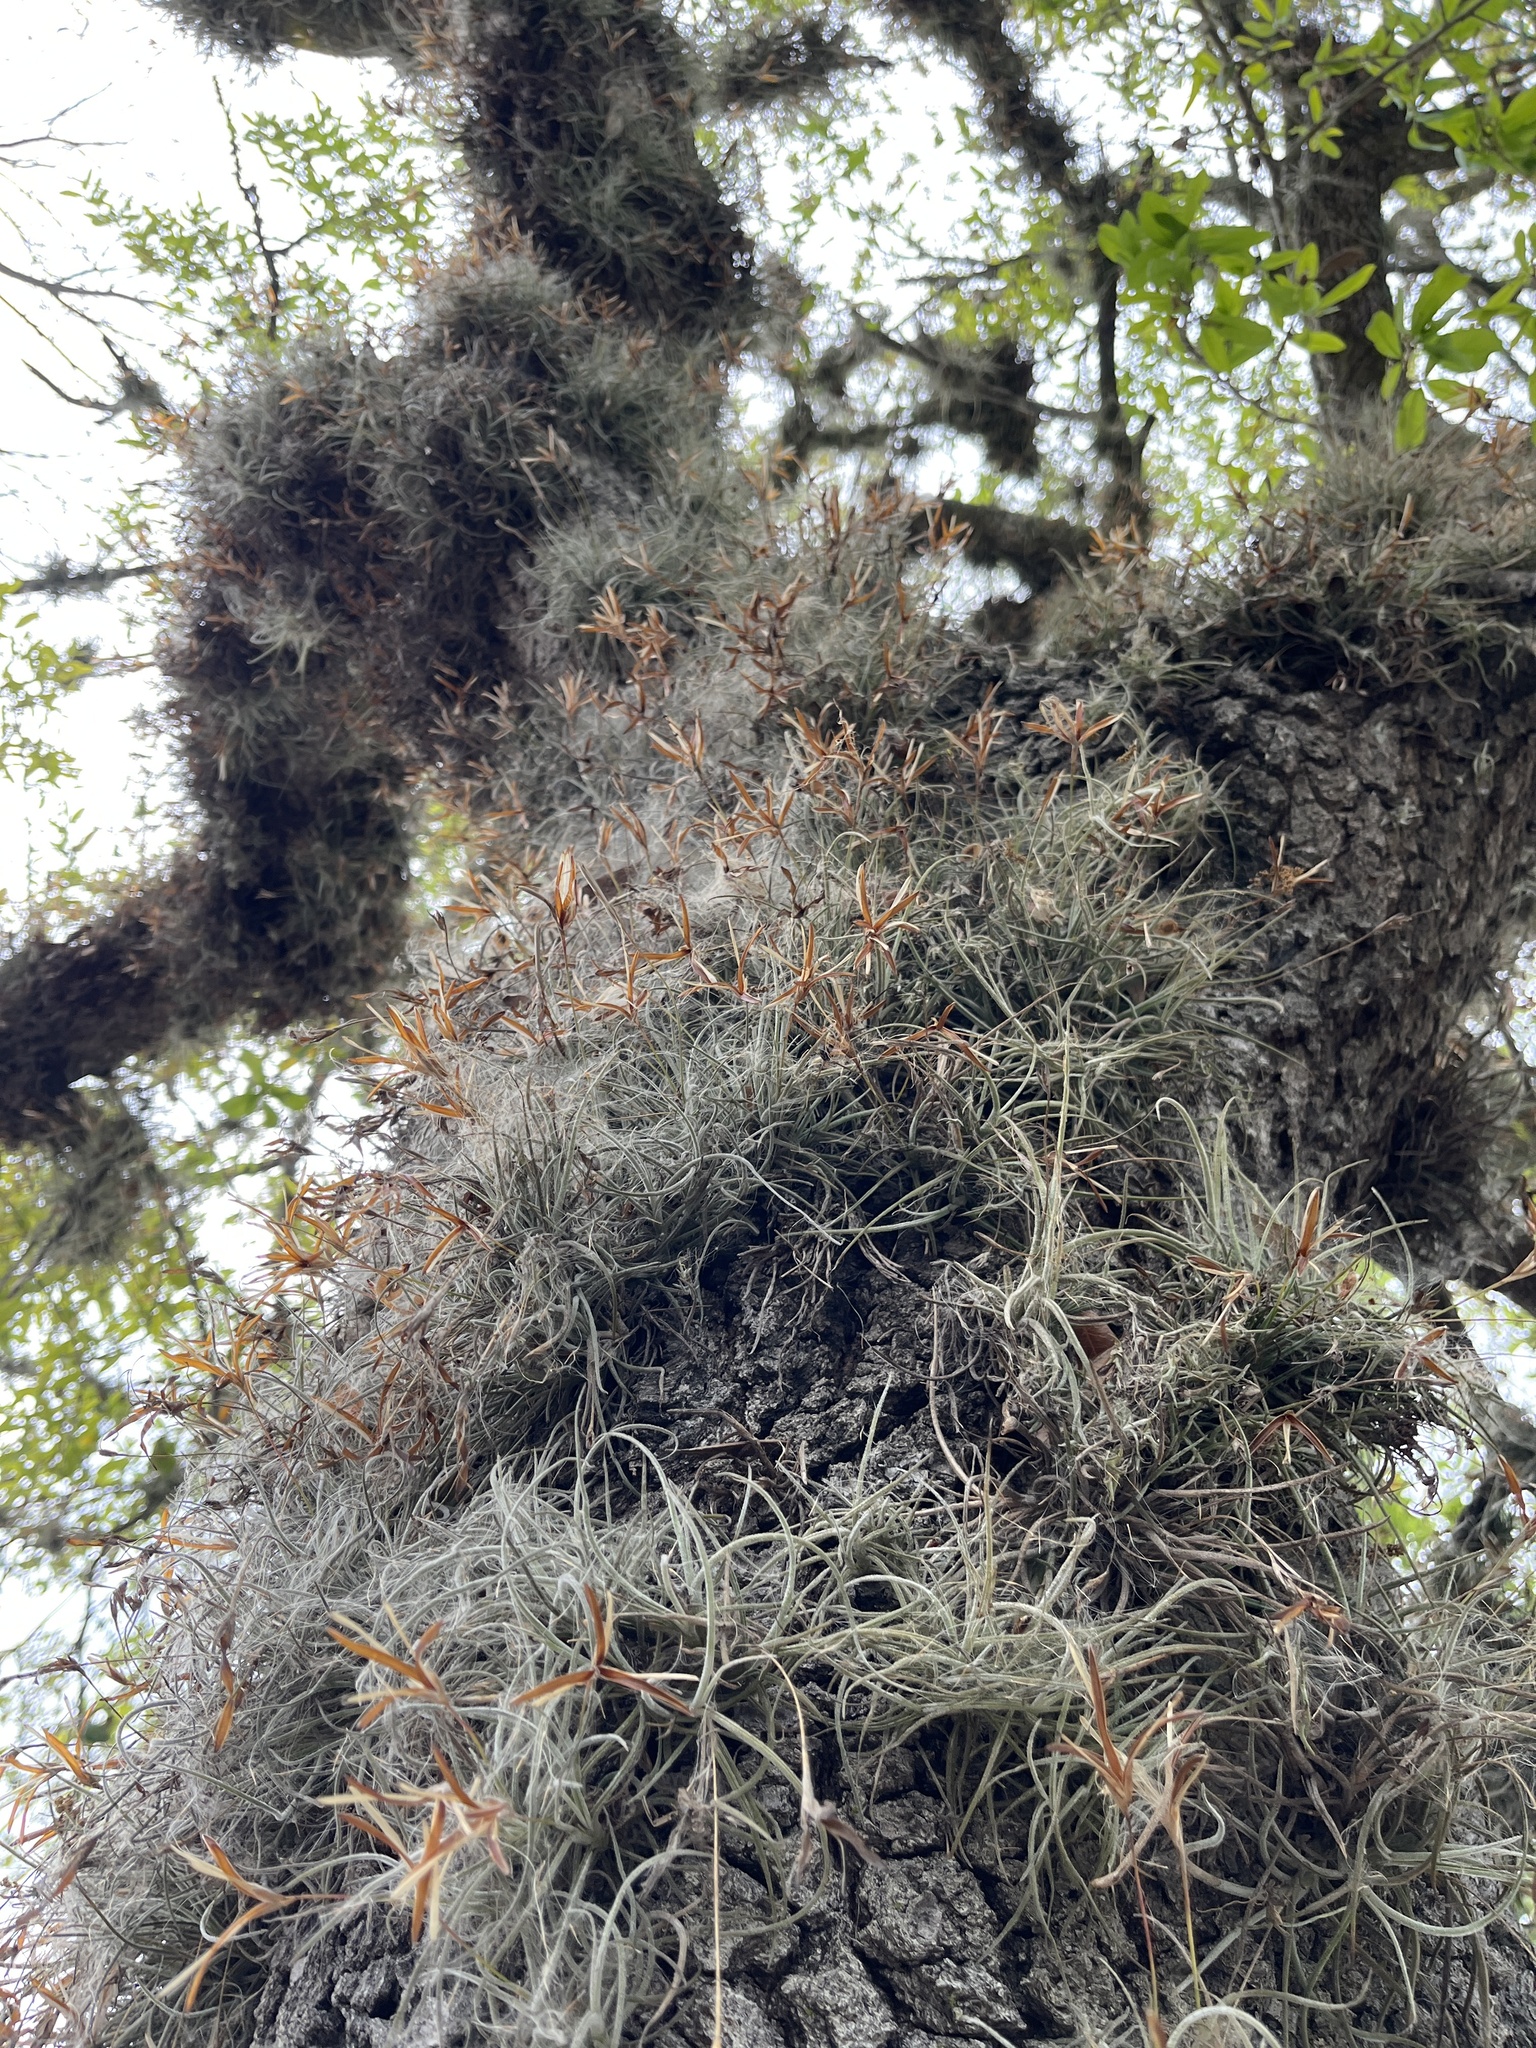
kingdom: Plantae
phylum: Tracheophyta
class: Liliopsida
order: Poales
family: Bromeliaceae
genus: Tillandsia
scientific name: Tillandsia recurvata
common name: Small ballmoss
